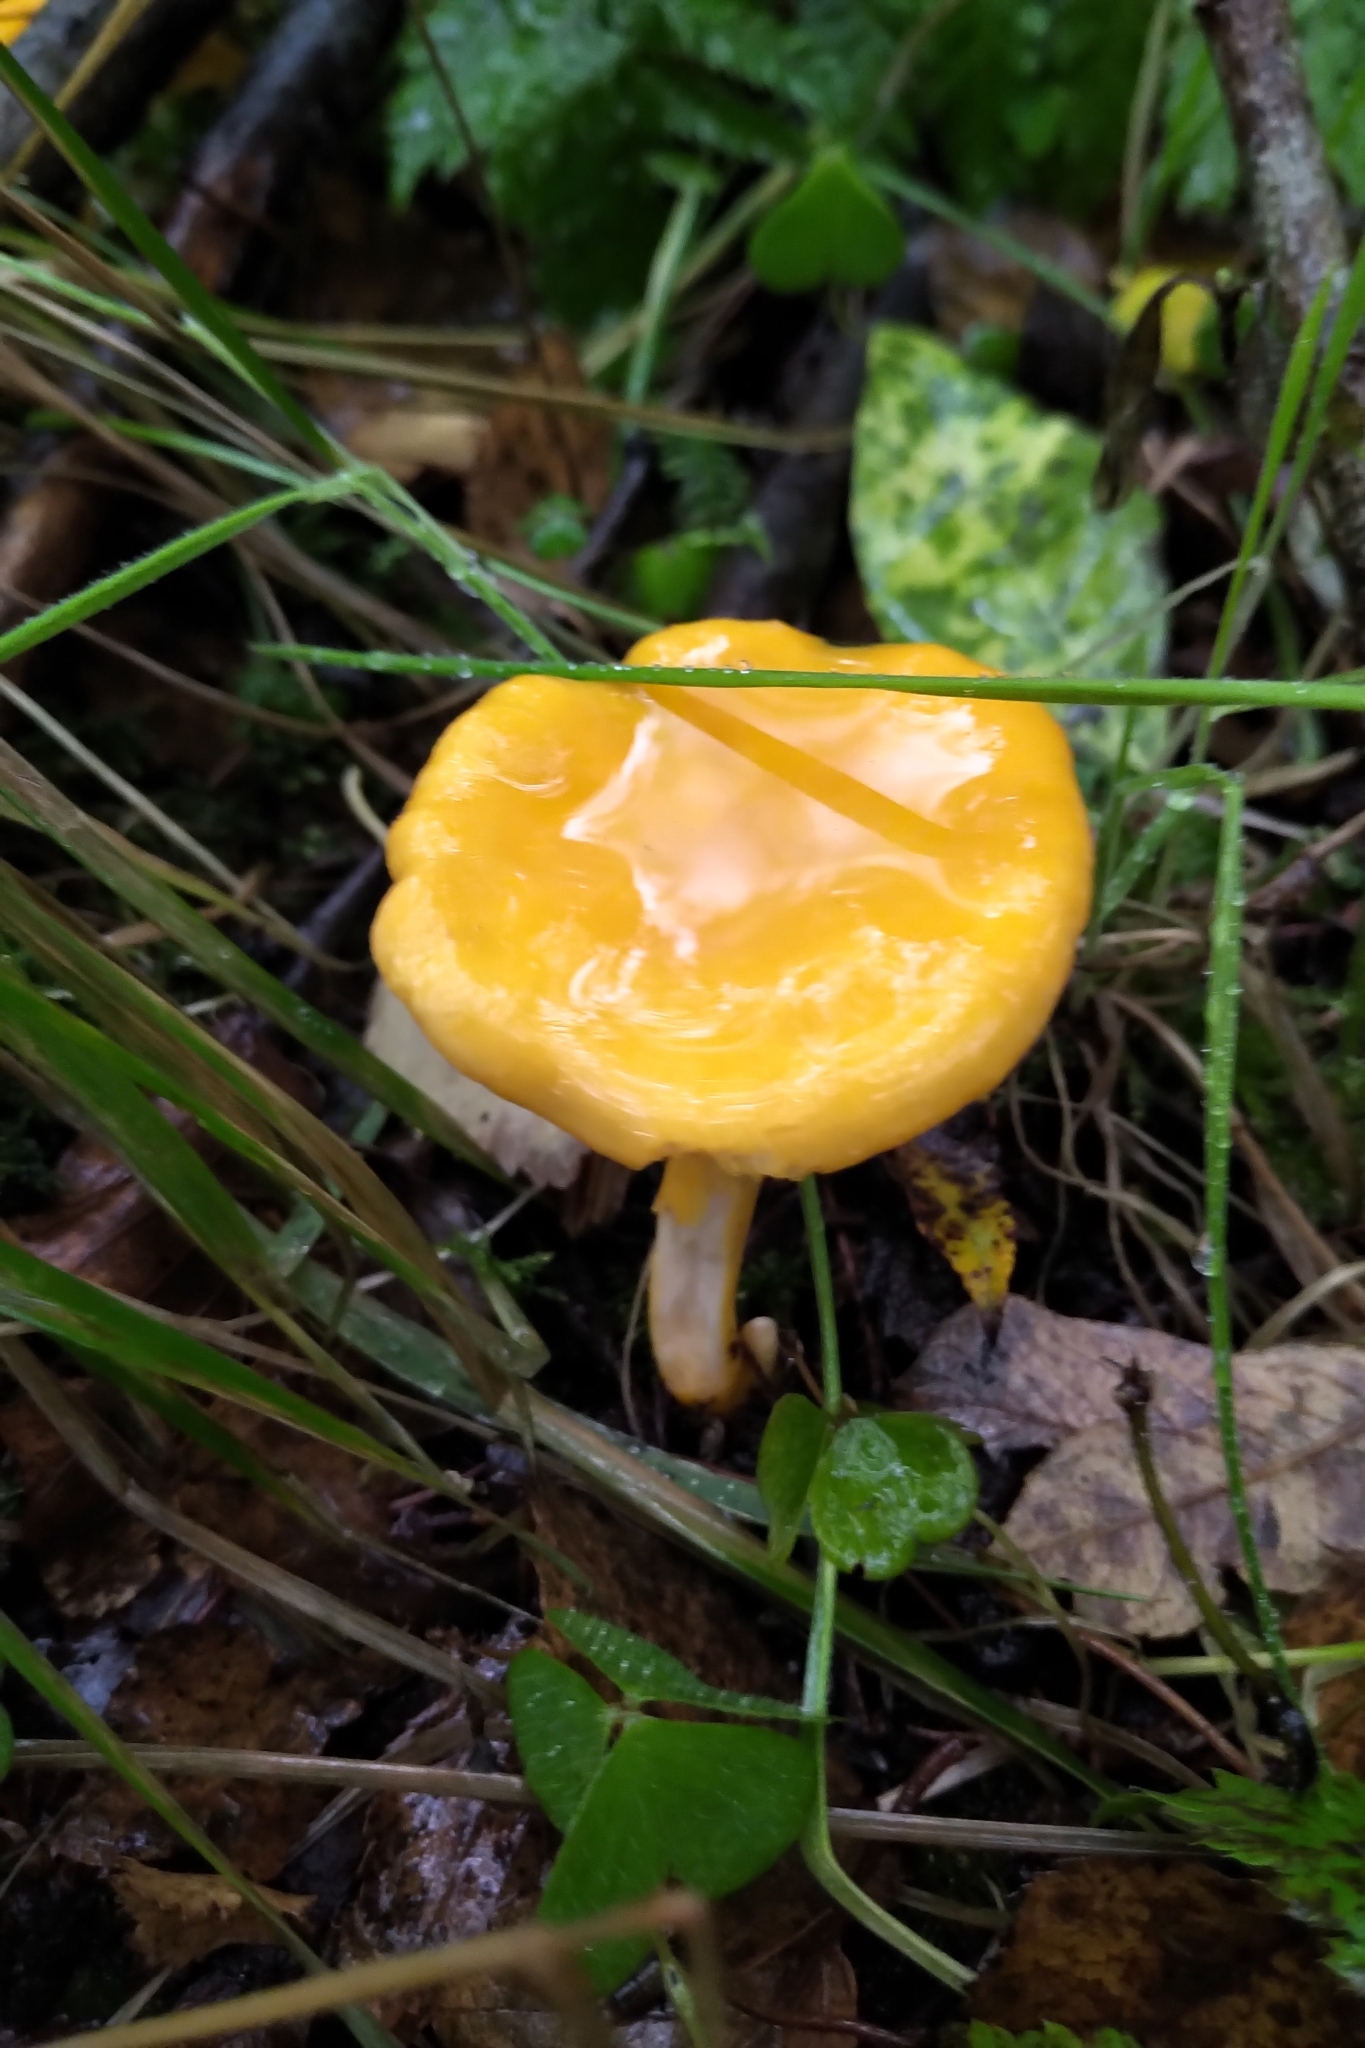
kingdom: Fungi
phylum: Basidiomycota
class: Agaricomycetes
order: Cantharellales
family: Hydnaceae
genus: Cantharellus
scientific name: Cantharellus cibarius
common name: Chanterelle
